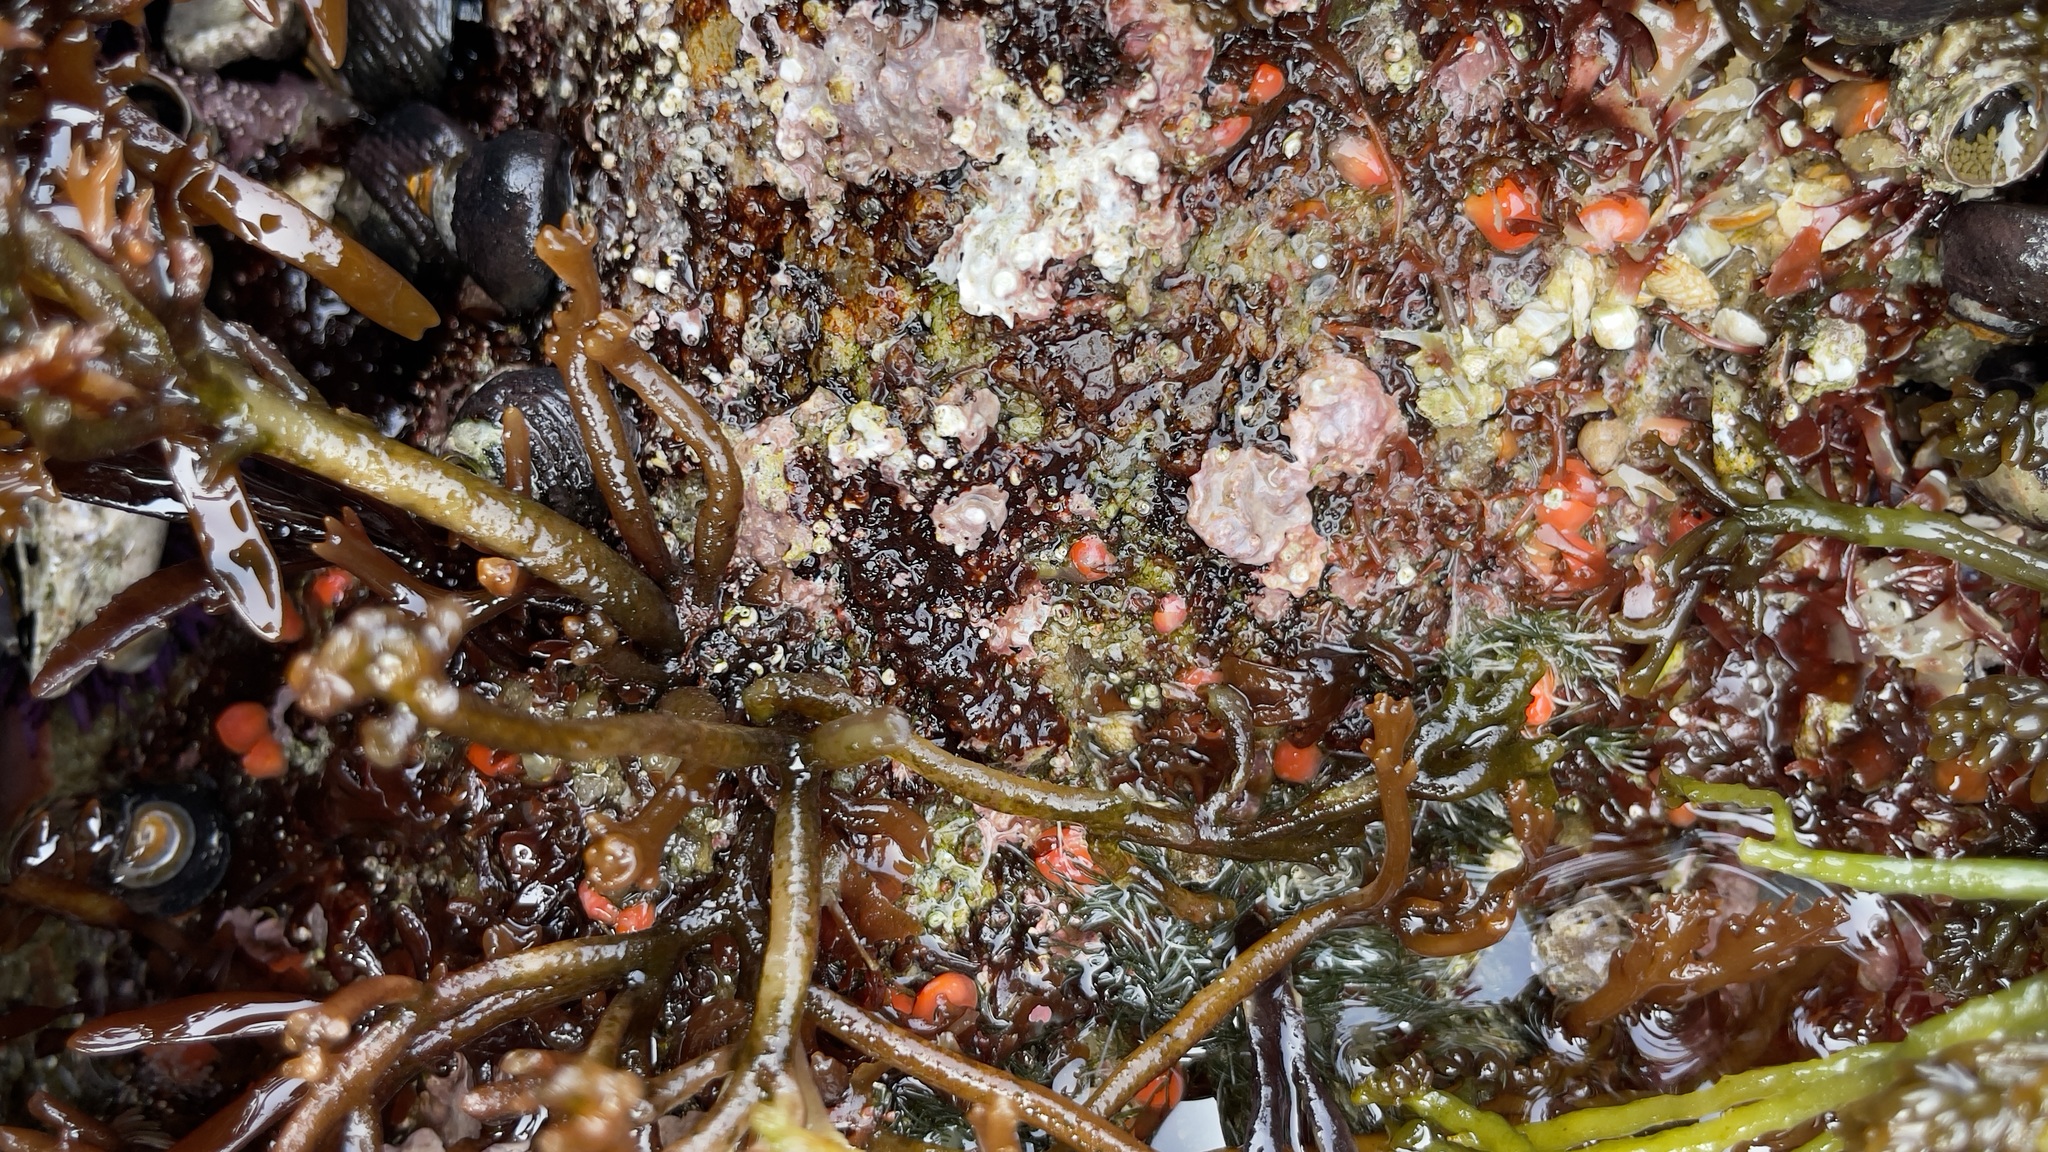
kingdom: Animalia
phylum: Cnidaria
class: Anthozoa
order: Corallimorpharia
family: Corallimorphidae
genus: Corynactis
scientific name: Corynactis californica
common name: Strawberry corallimorpharian
